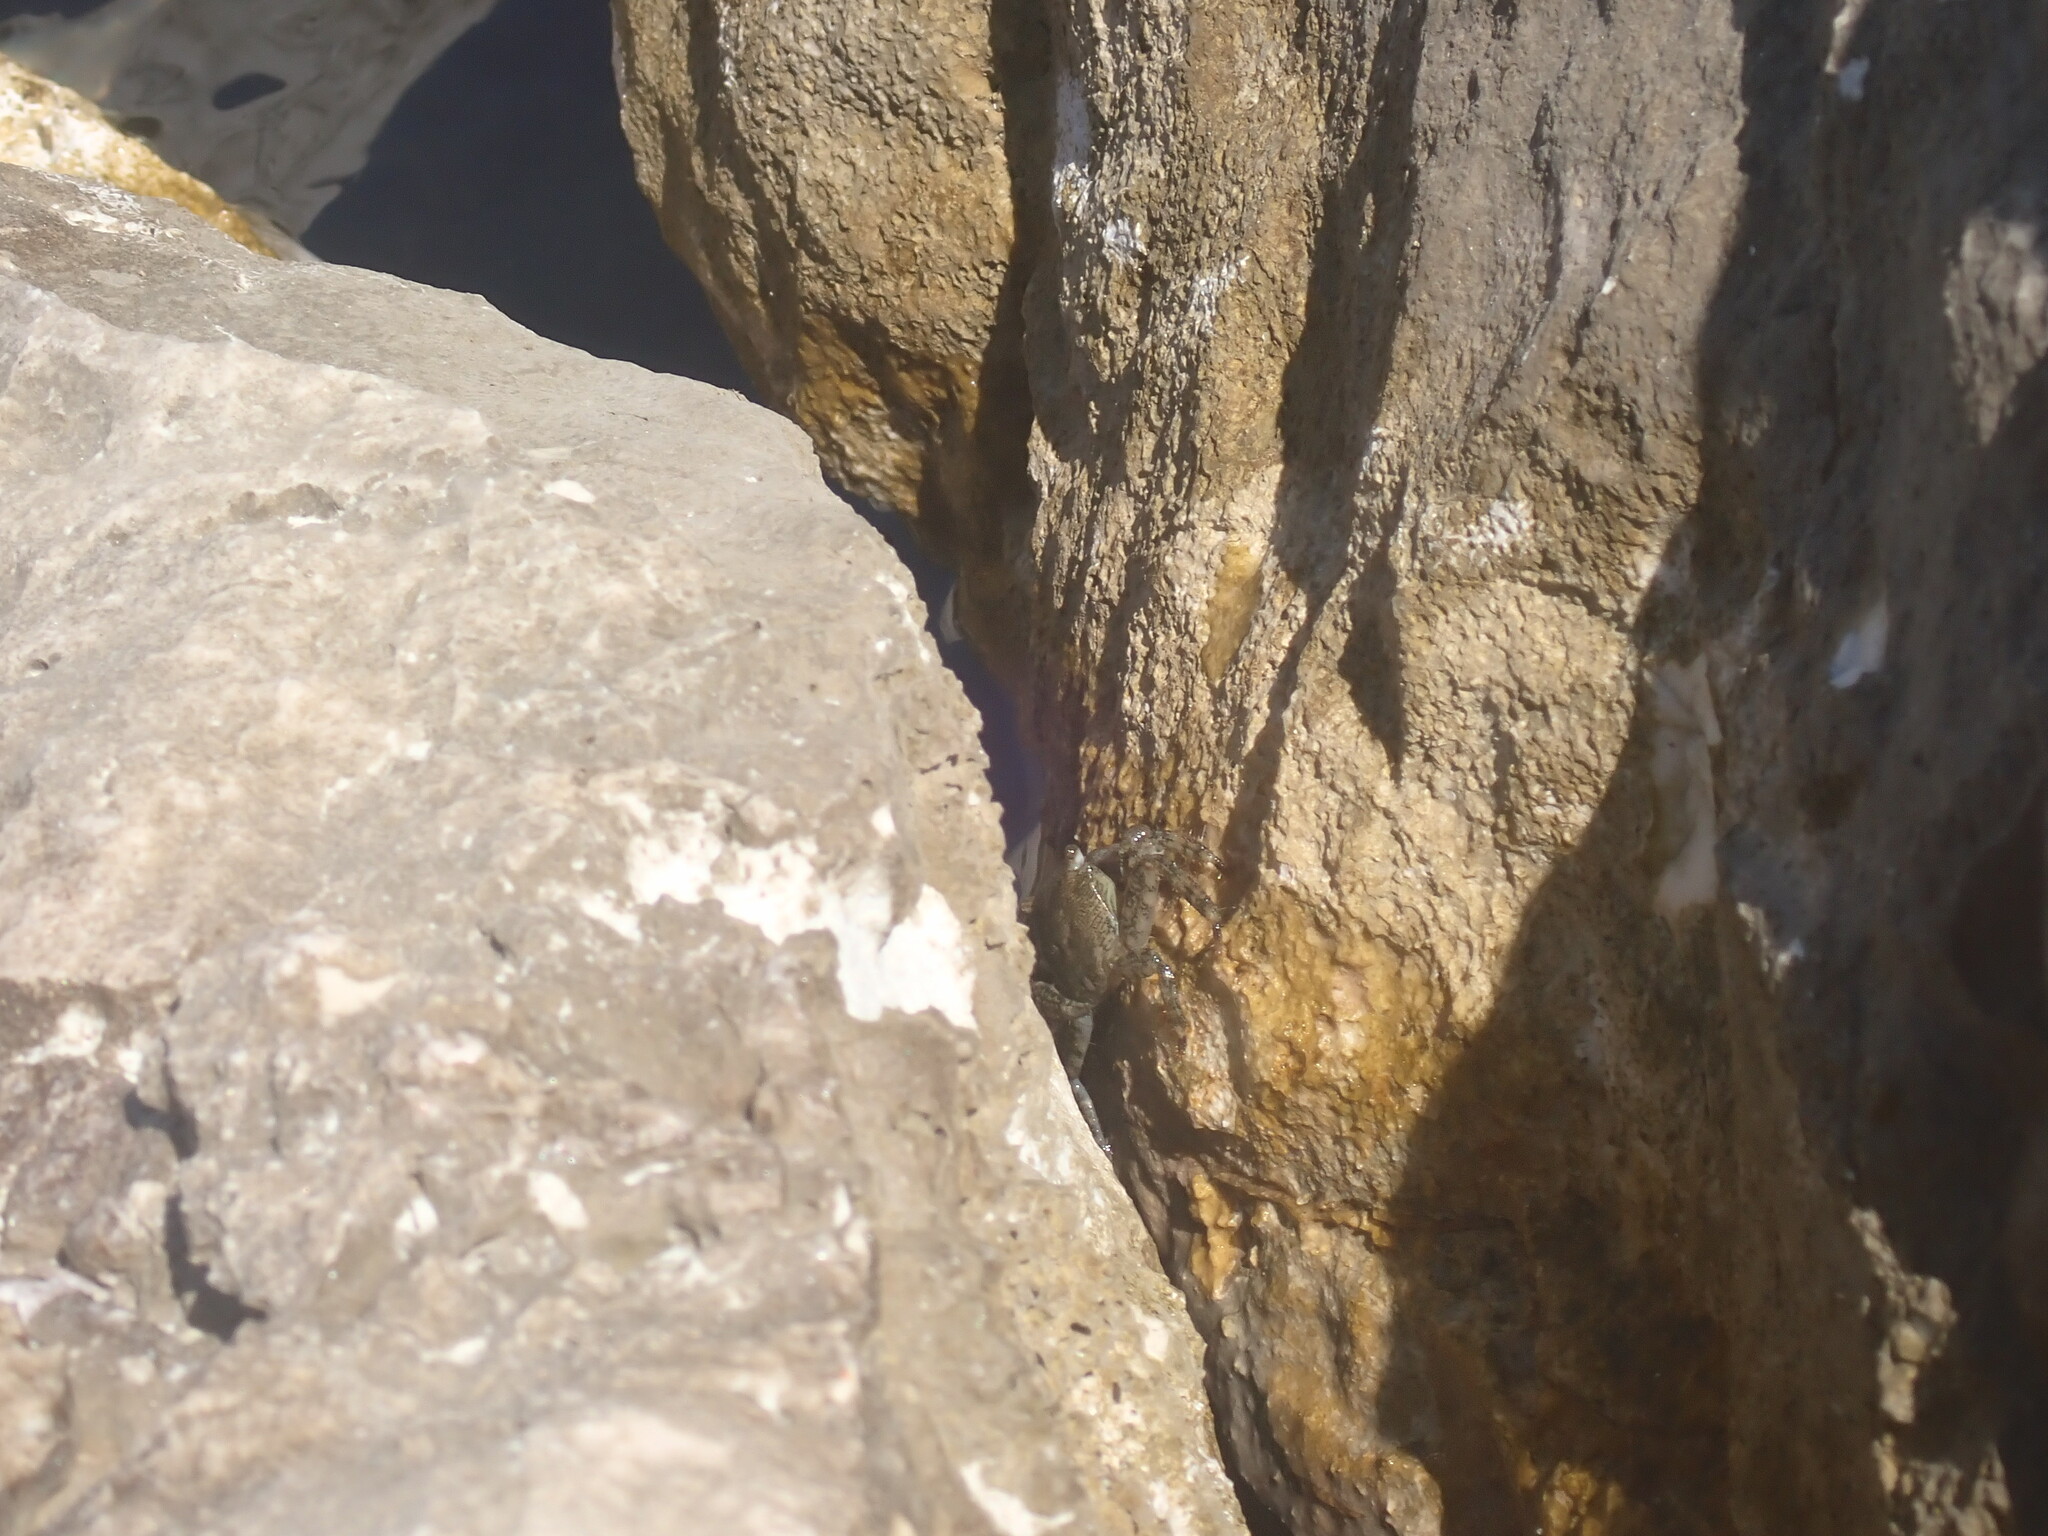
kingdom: Animalia
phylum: Arthropoda
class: Malacostraca
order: Decapoda
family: Grapsidae
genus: Pachygrapsus
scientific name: Pachygrapsus marmoratus
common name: Marbled rock crab
